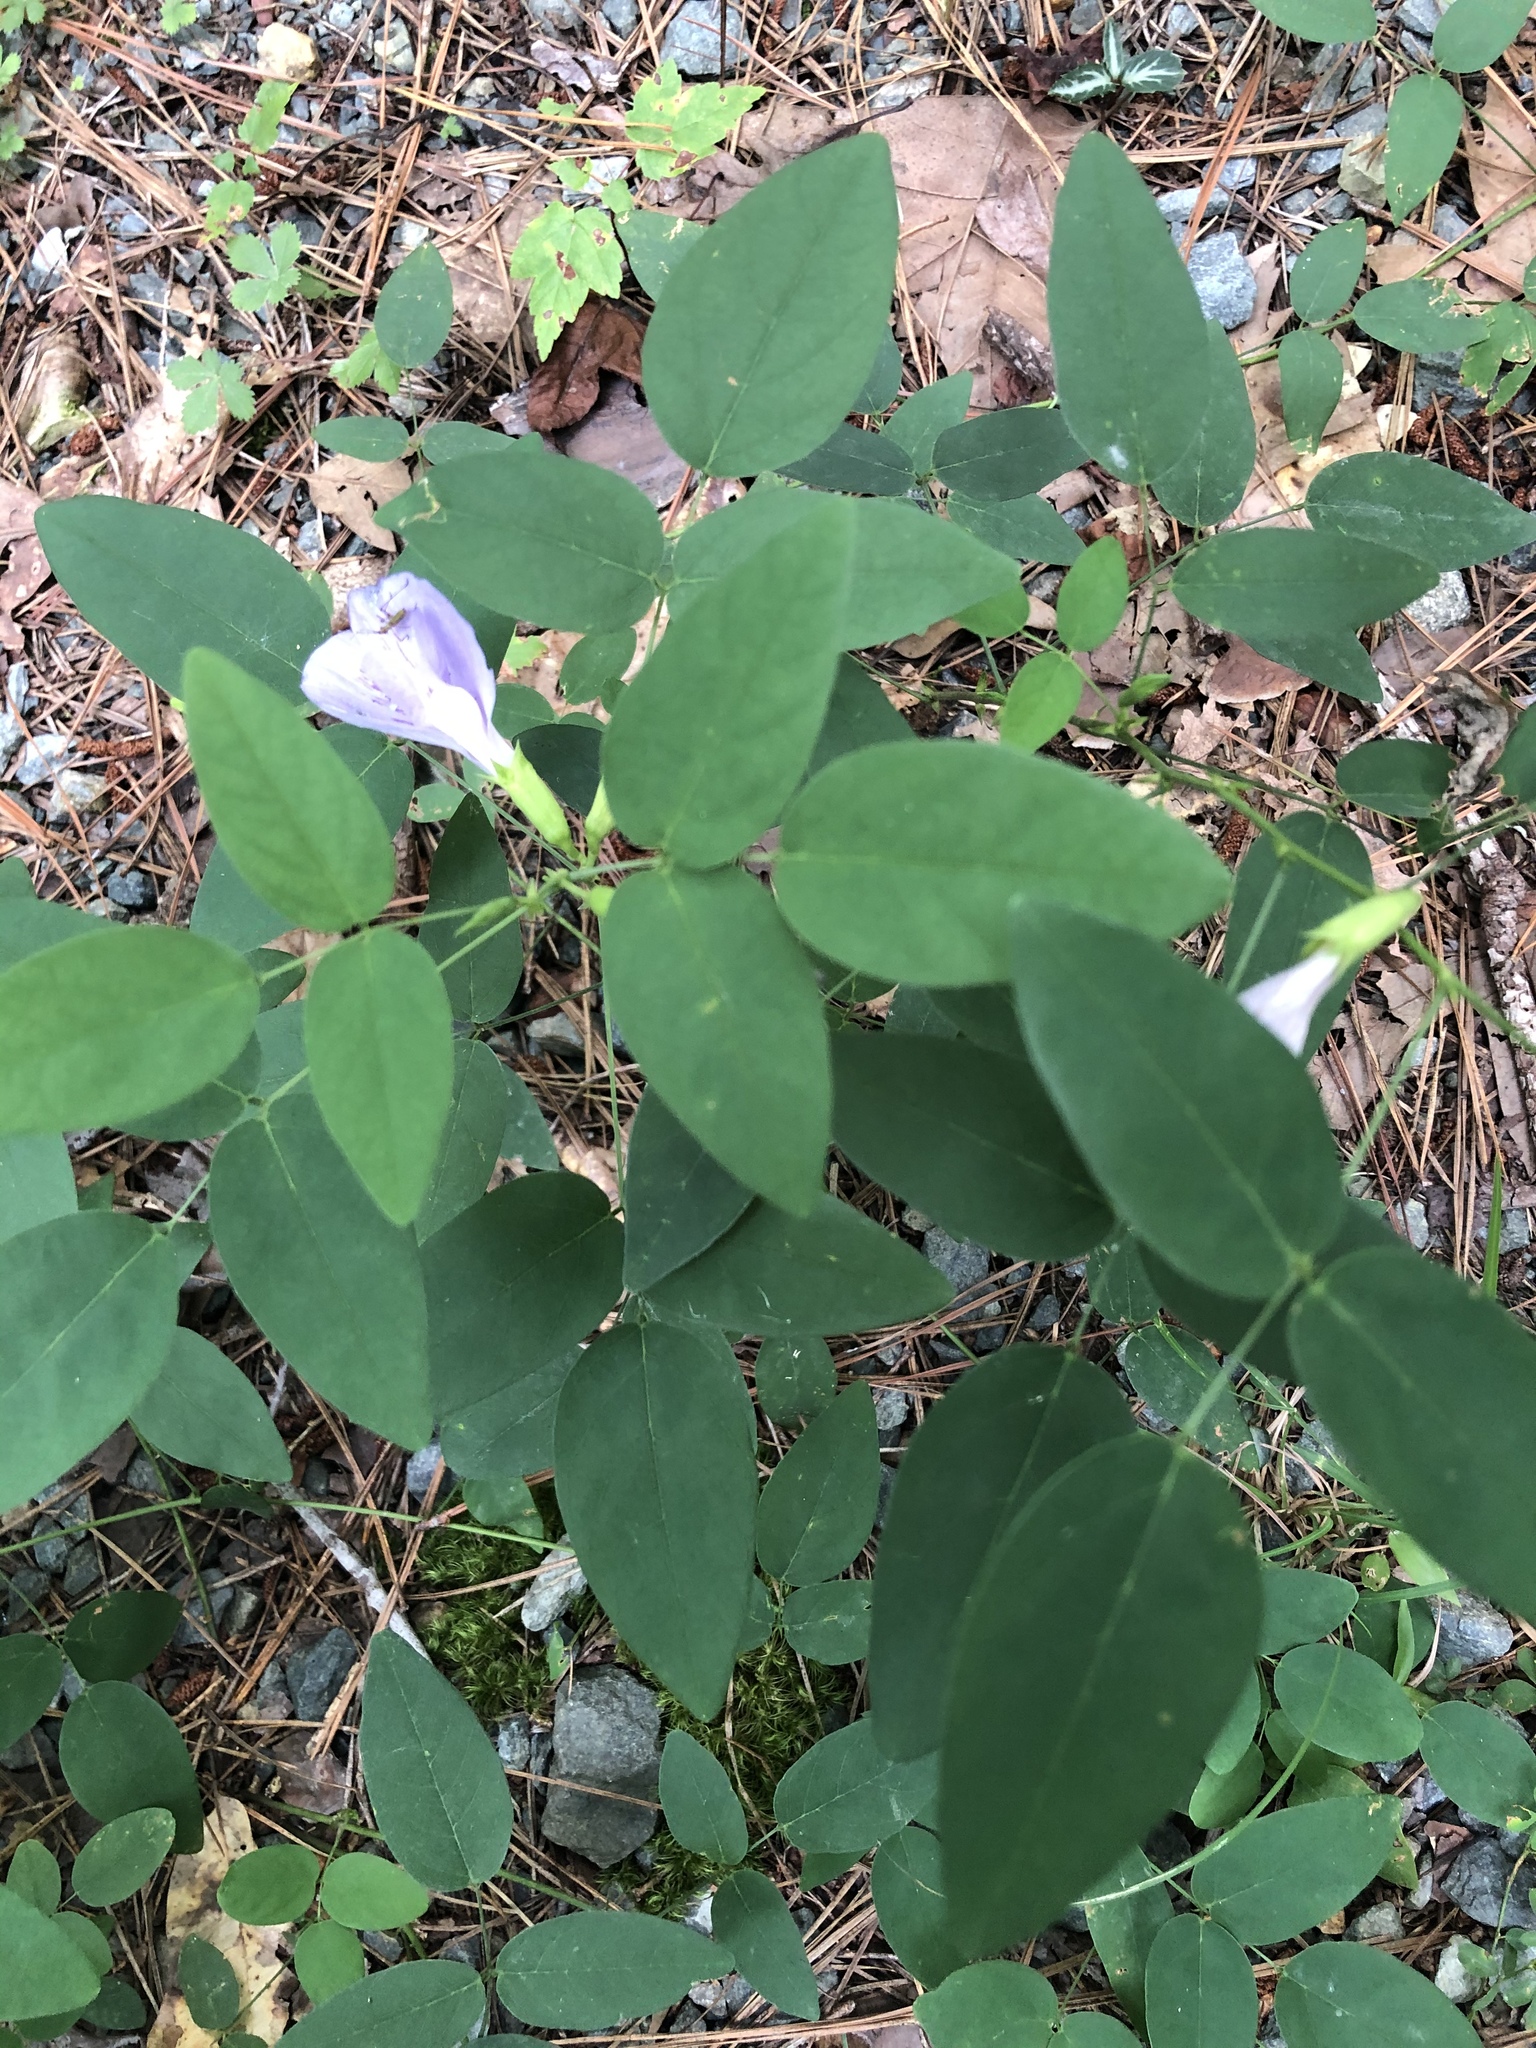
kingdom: Plantae
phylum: Tracheophyta
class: Magnoliopsida
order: Fabales
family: Fabaceae
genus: Clitoria
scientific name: Clitoria mariana
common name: Butterfly-pea
